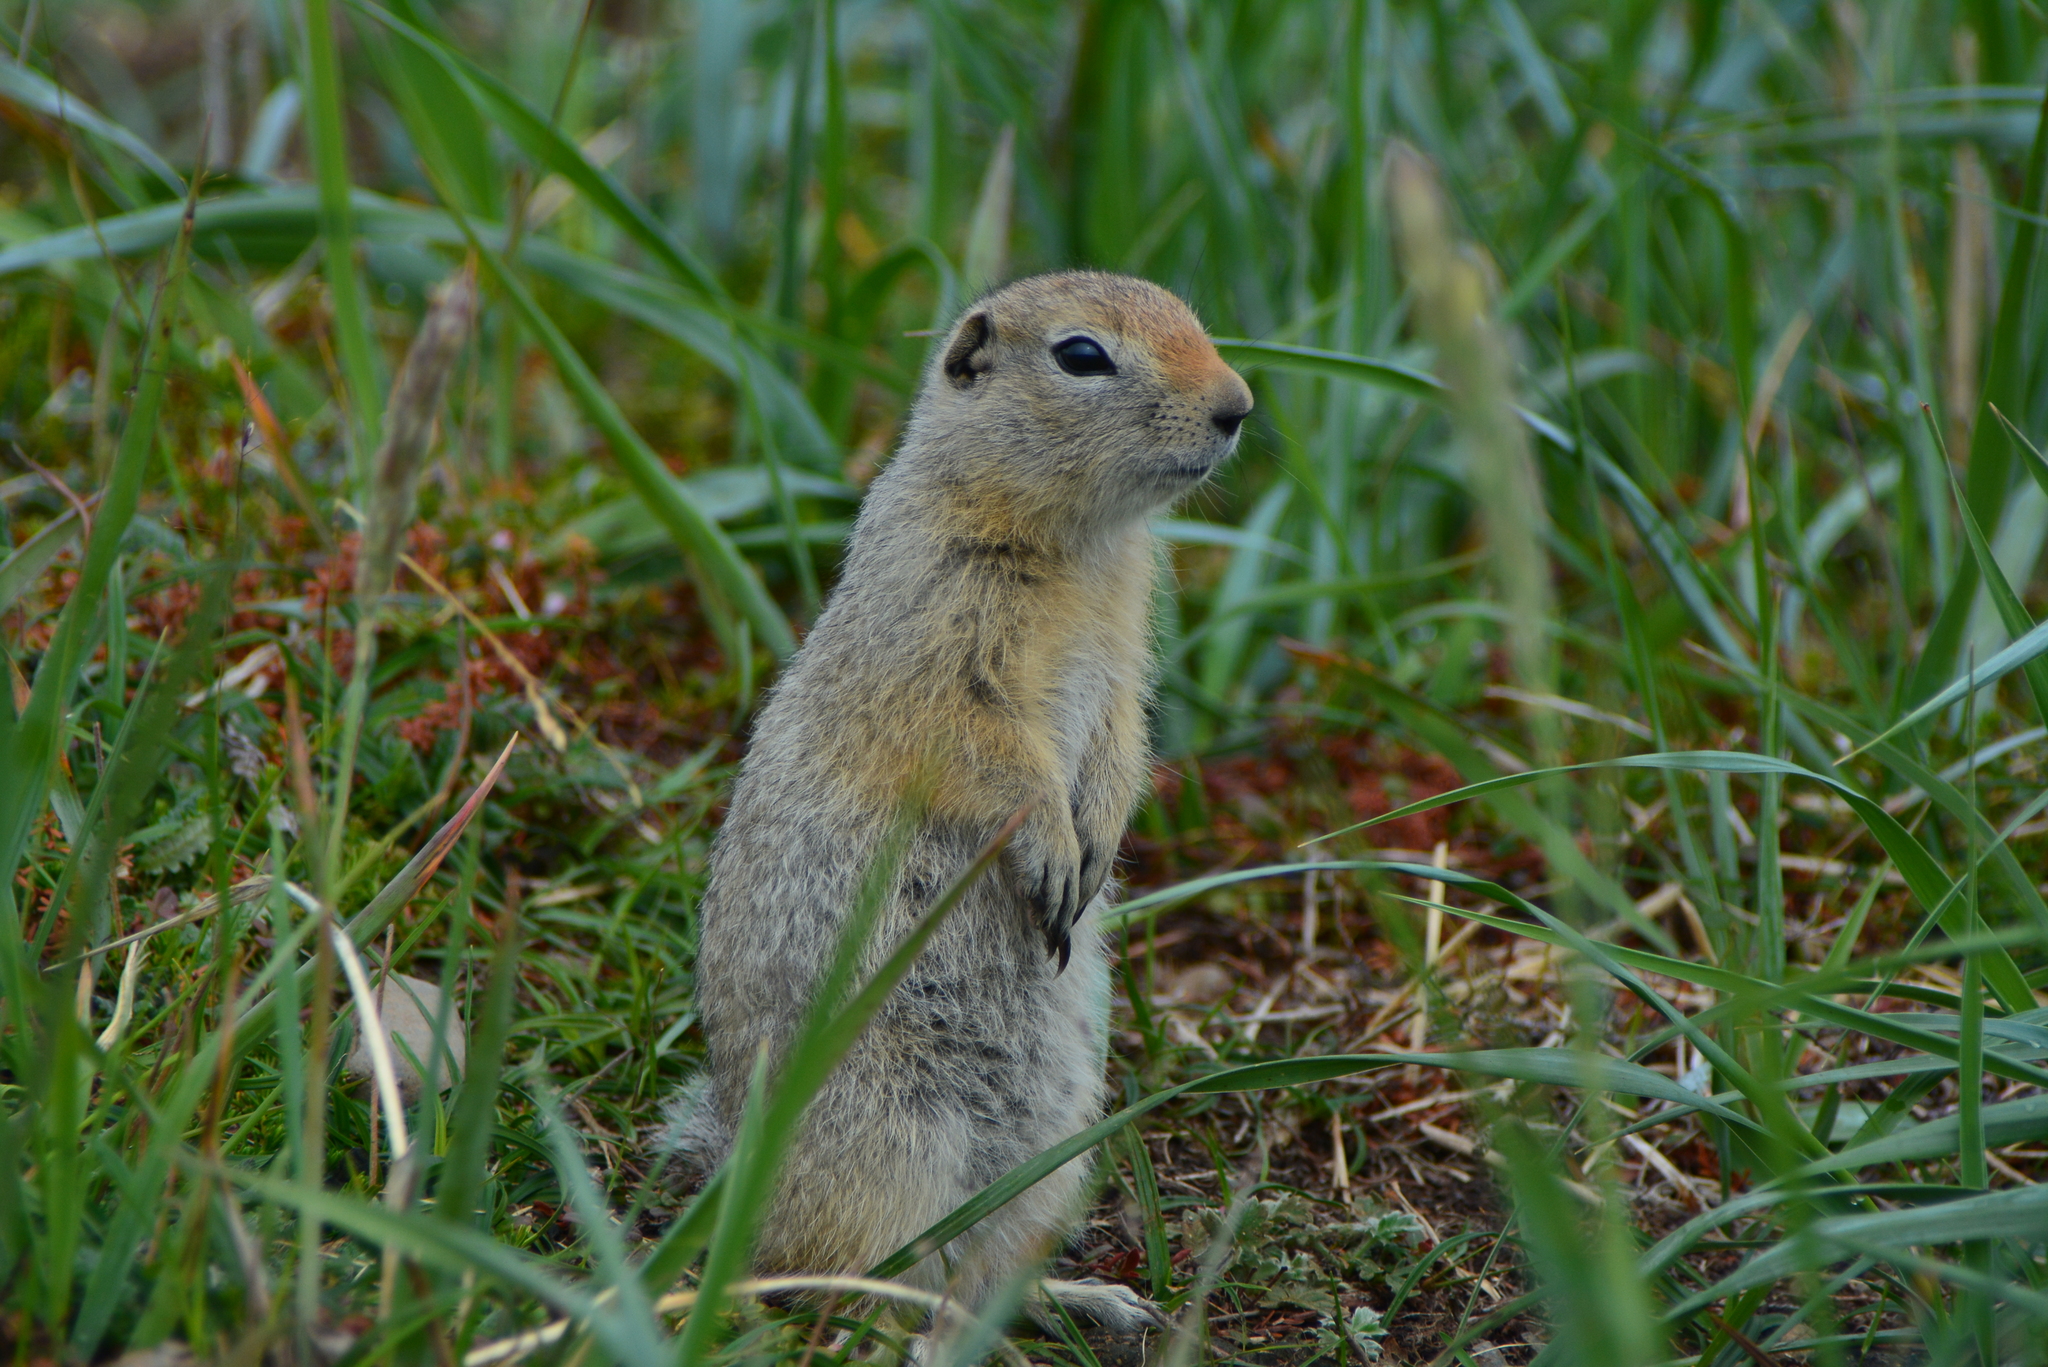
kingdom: Animalia
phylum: Chordata
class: Mammalia
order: Rodentia
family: Sciuridae
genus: Urocitellus
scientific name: Urocitellus parryii
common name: Arctic ground squirrel
